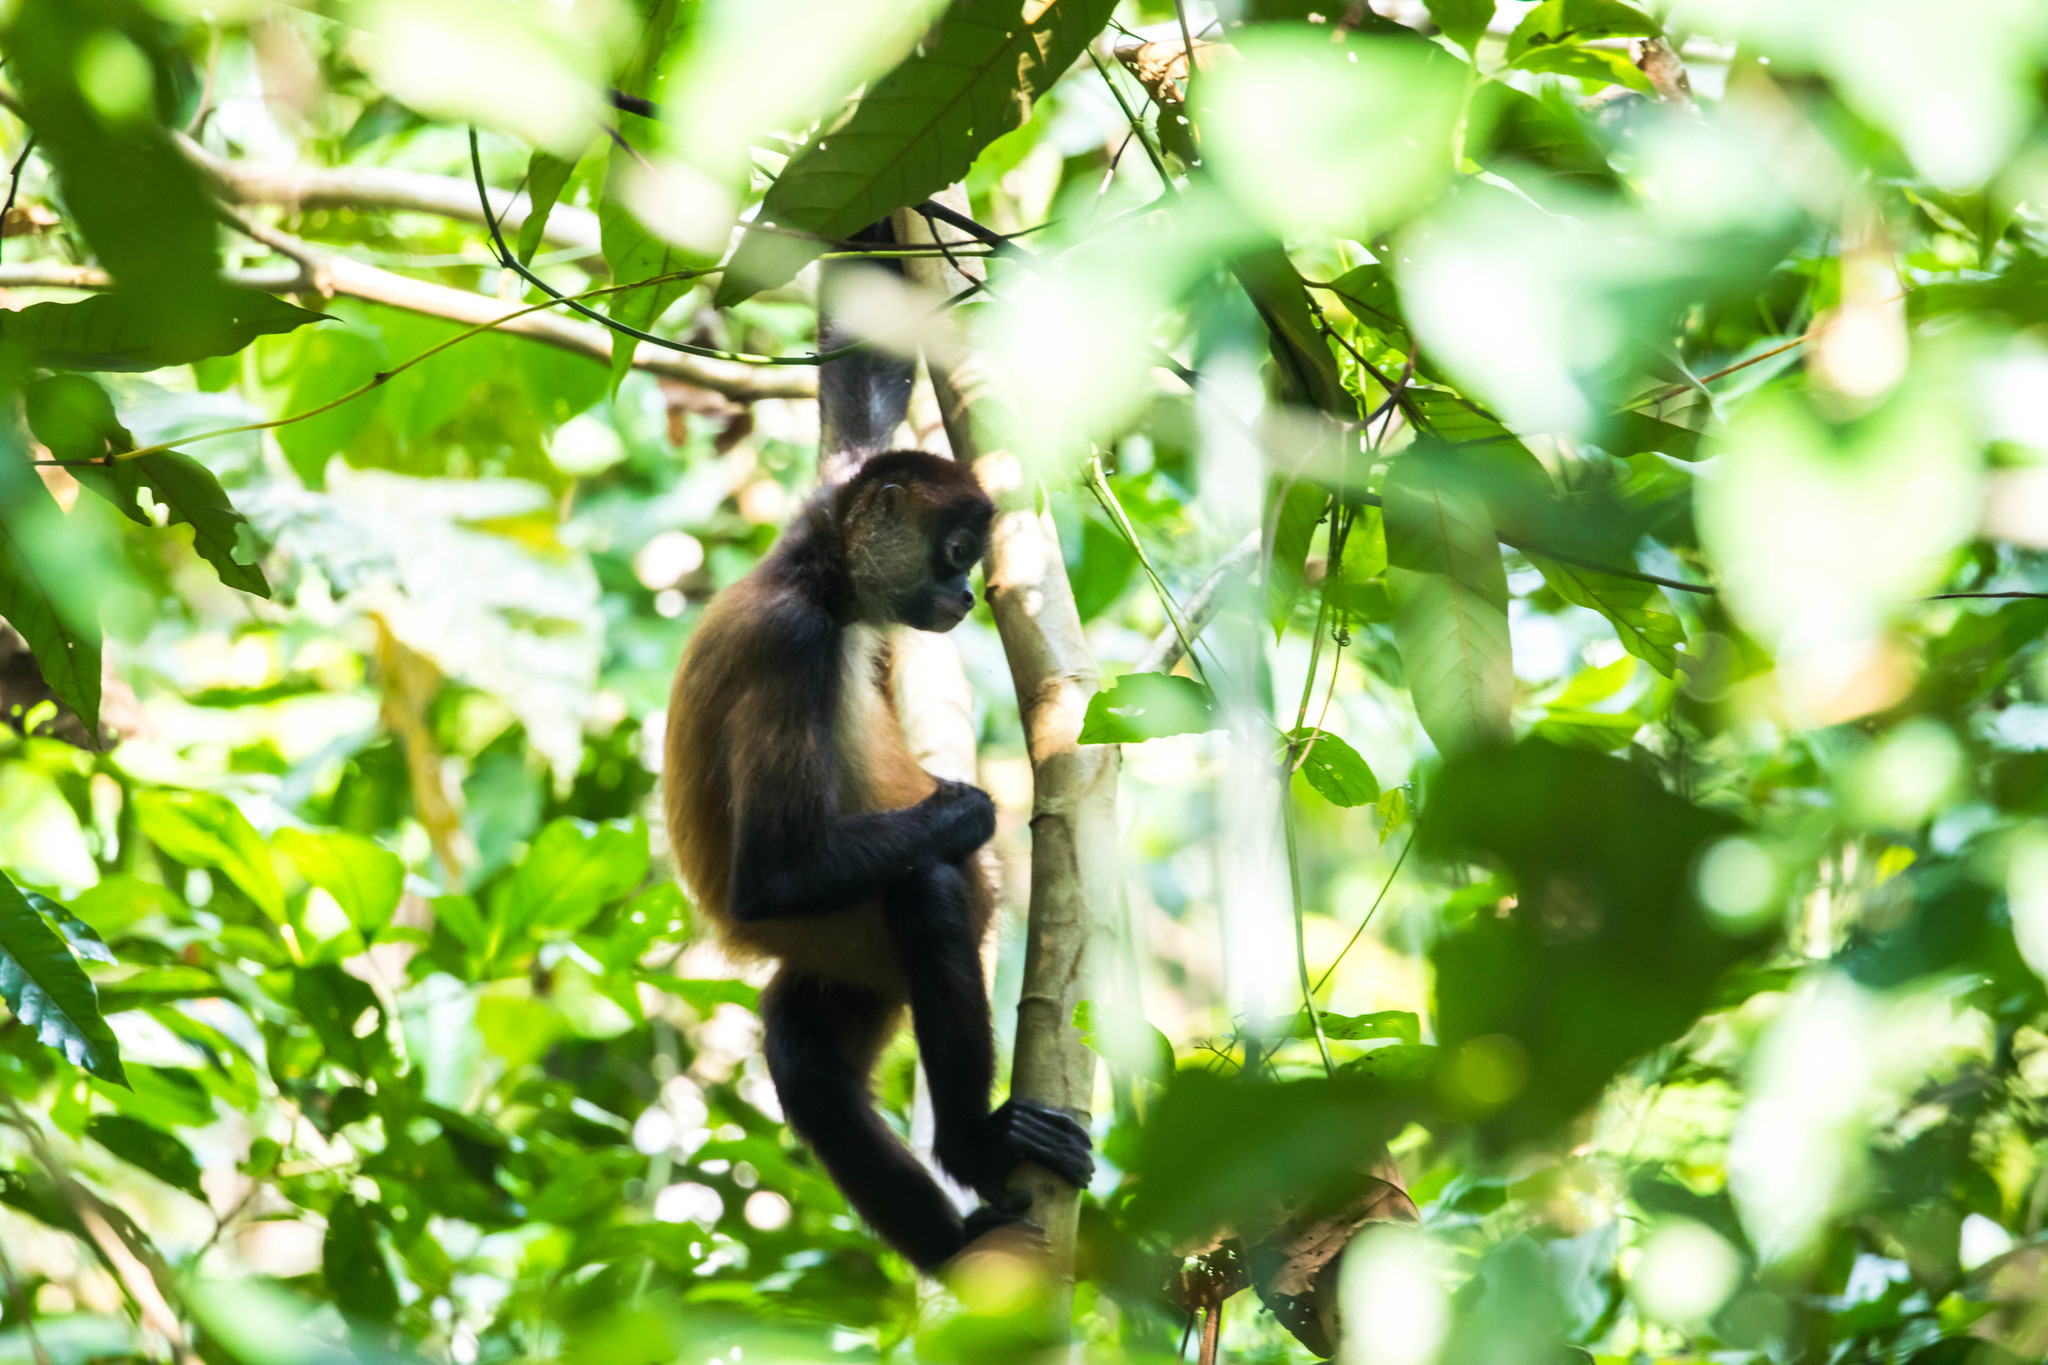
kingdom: Animalia
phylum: Chordata
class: Mammalia
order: Primates
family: Atelidae
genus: Ateles
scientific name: Ateles geoffroyi
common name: Black-handed spider monkey
